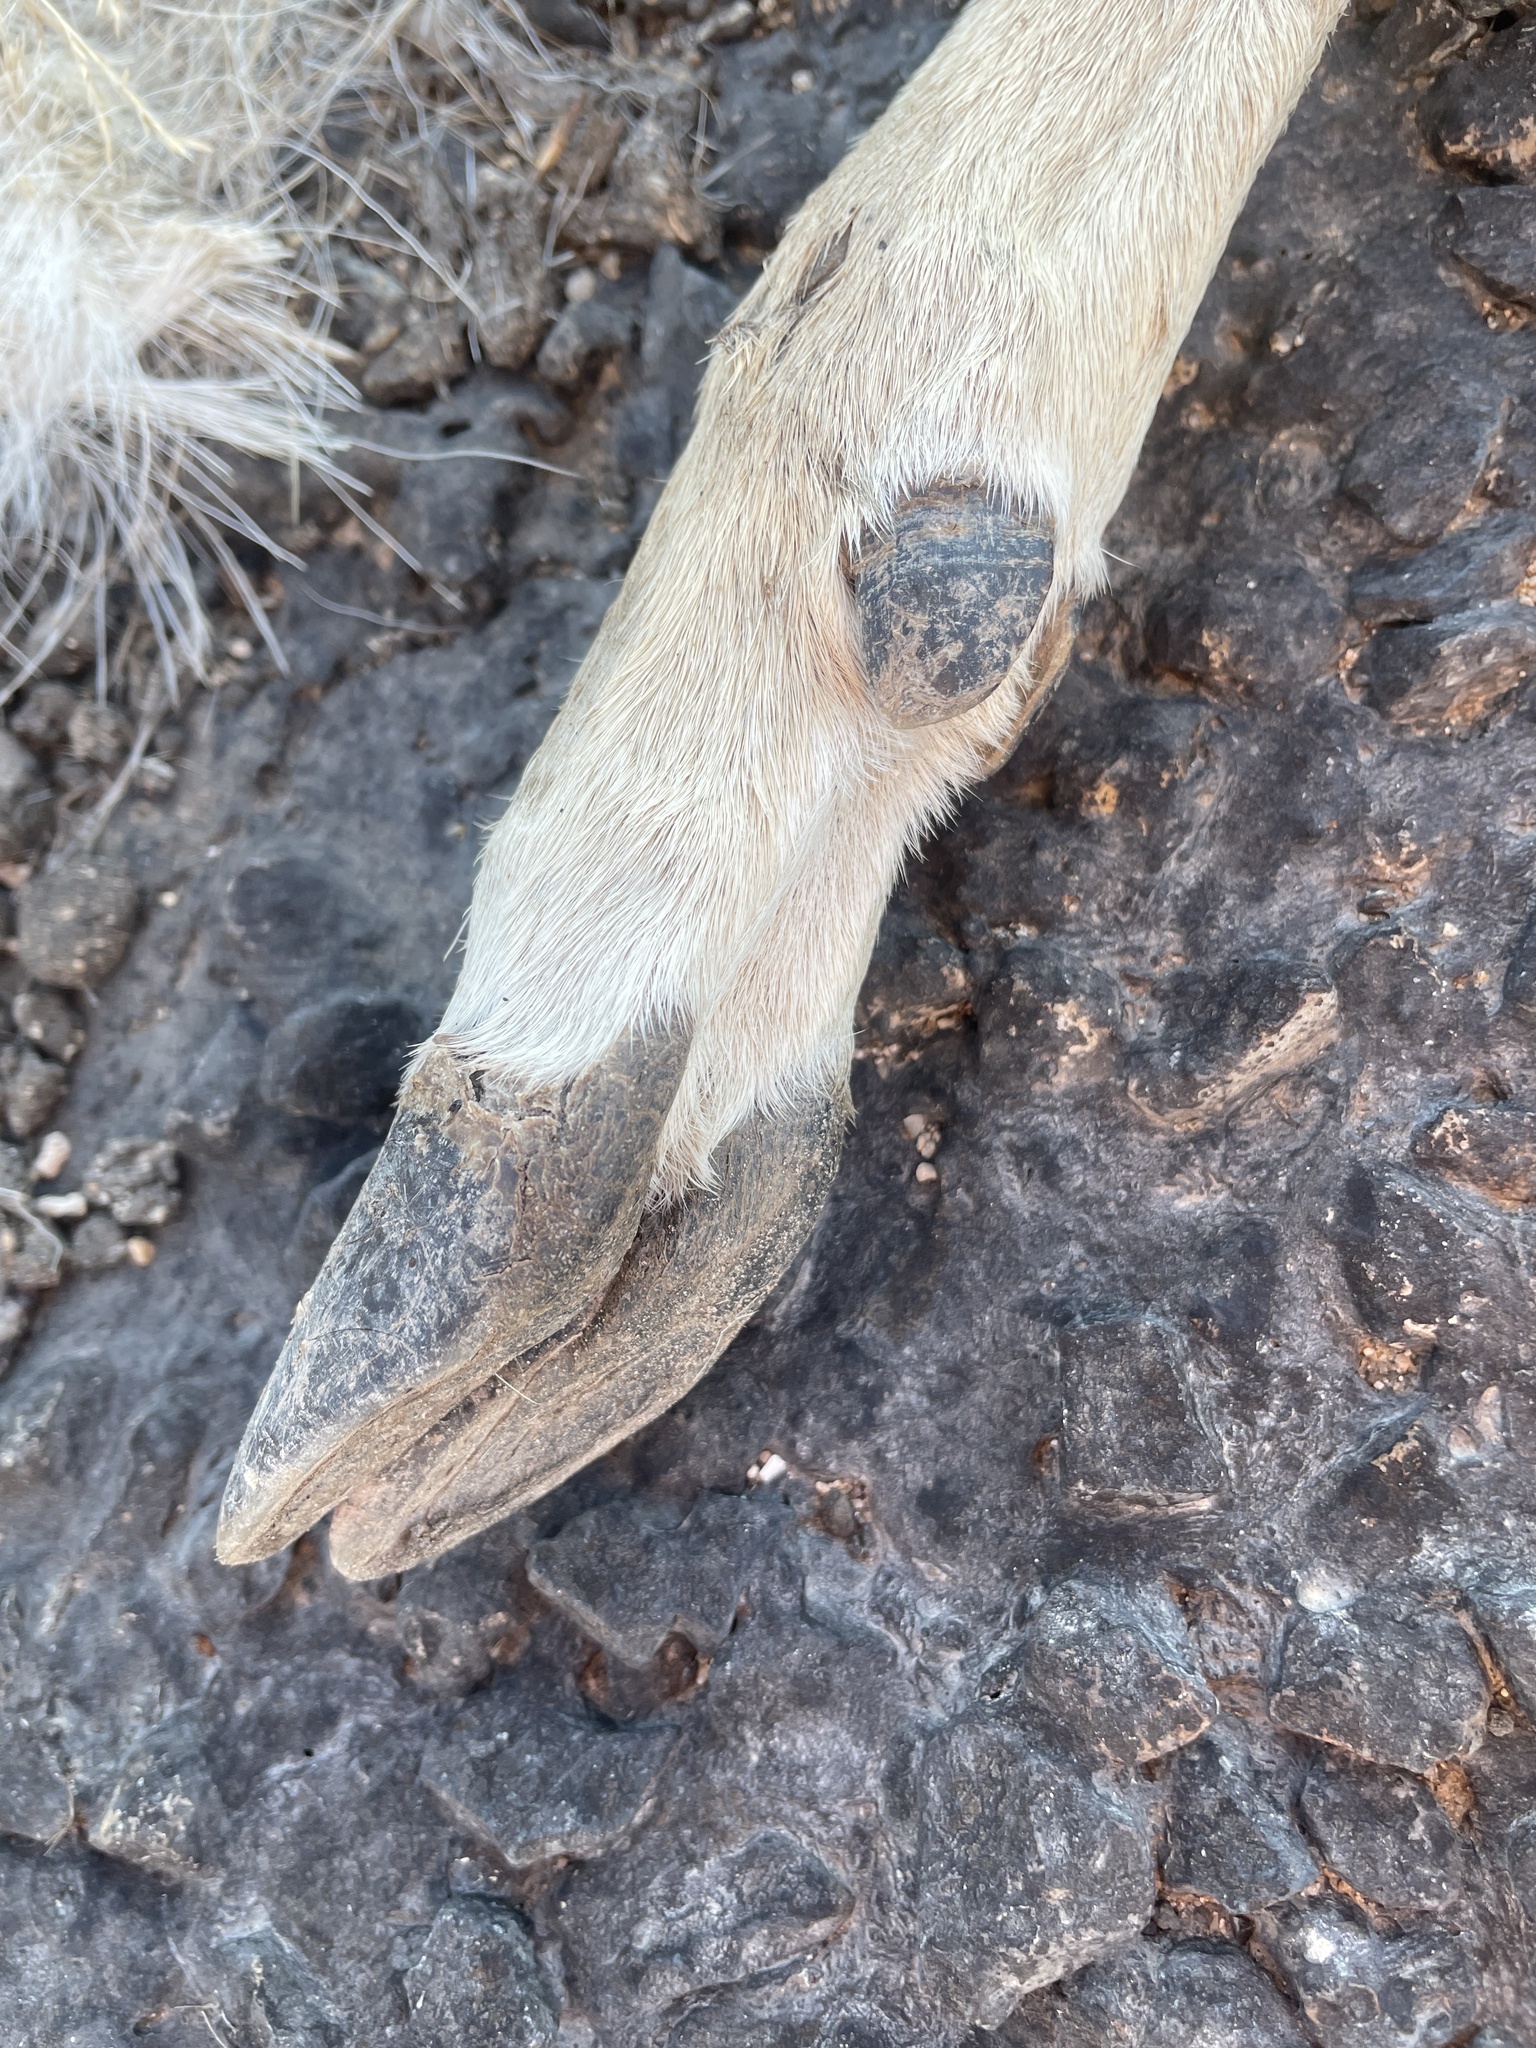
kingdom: Animalia
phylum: Chordata
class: Mammalia
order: Artiodactyla
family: Cervidae
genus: Odocoileus
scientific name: Odocoileus virginianus
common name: White-tailed deer
